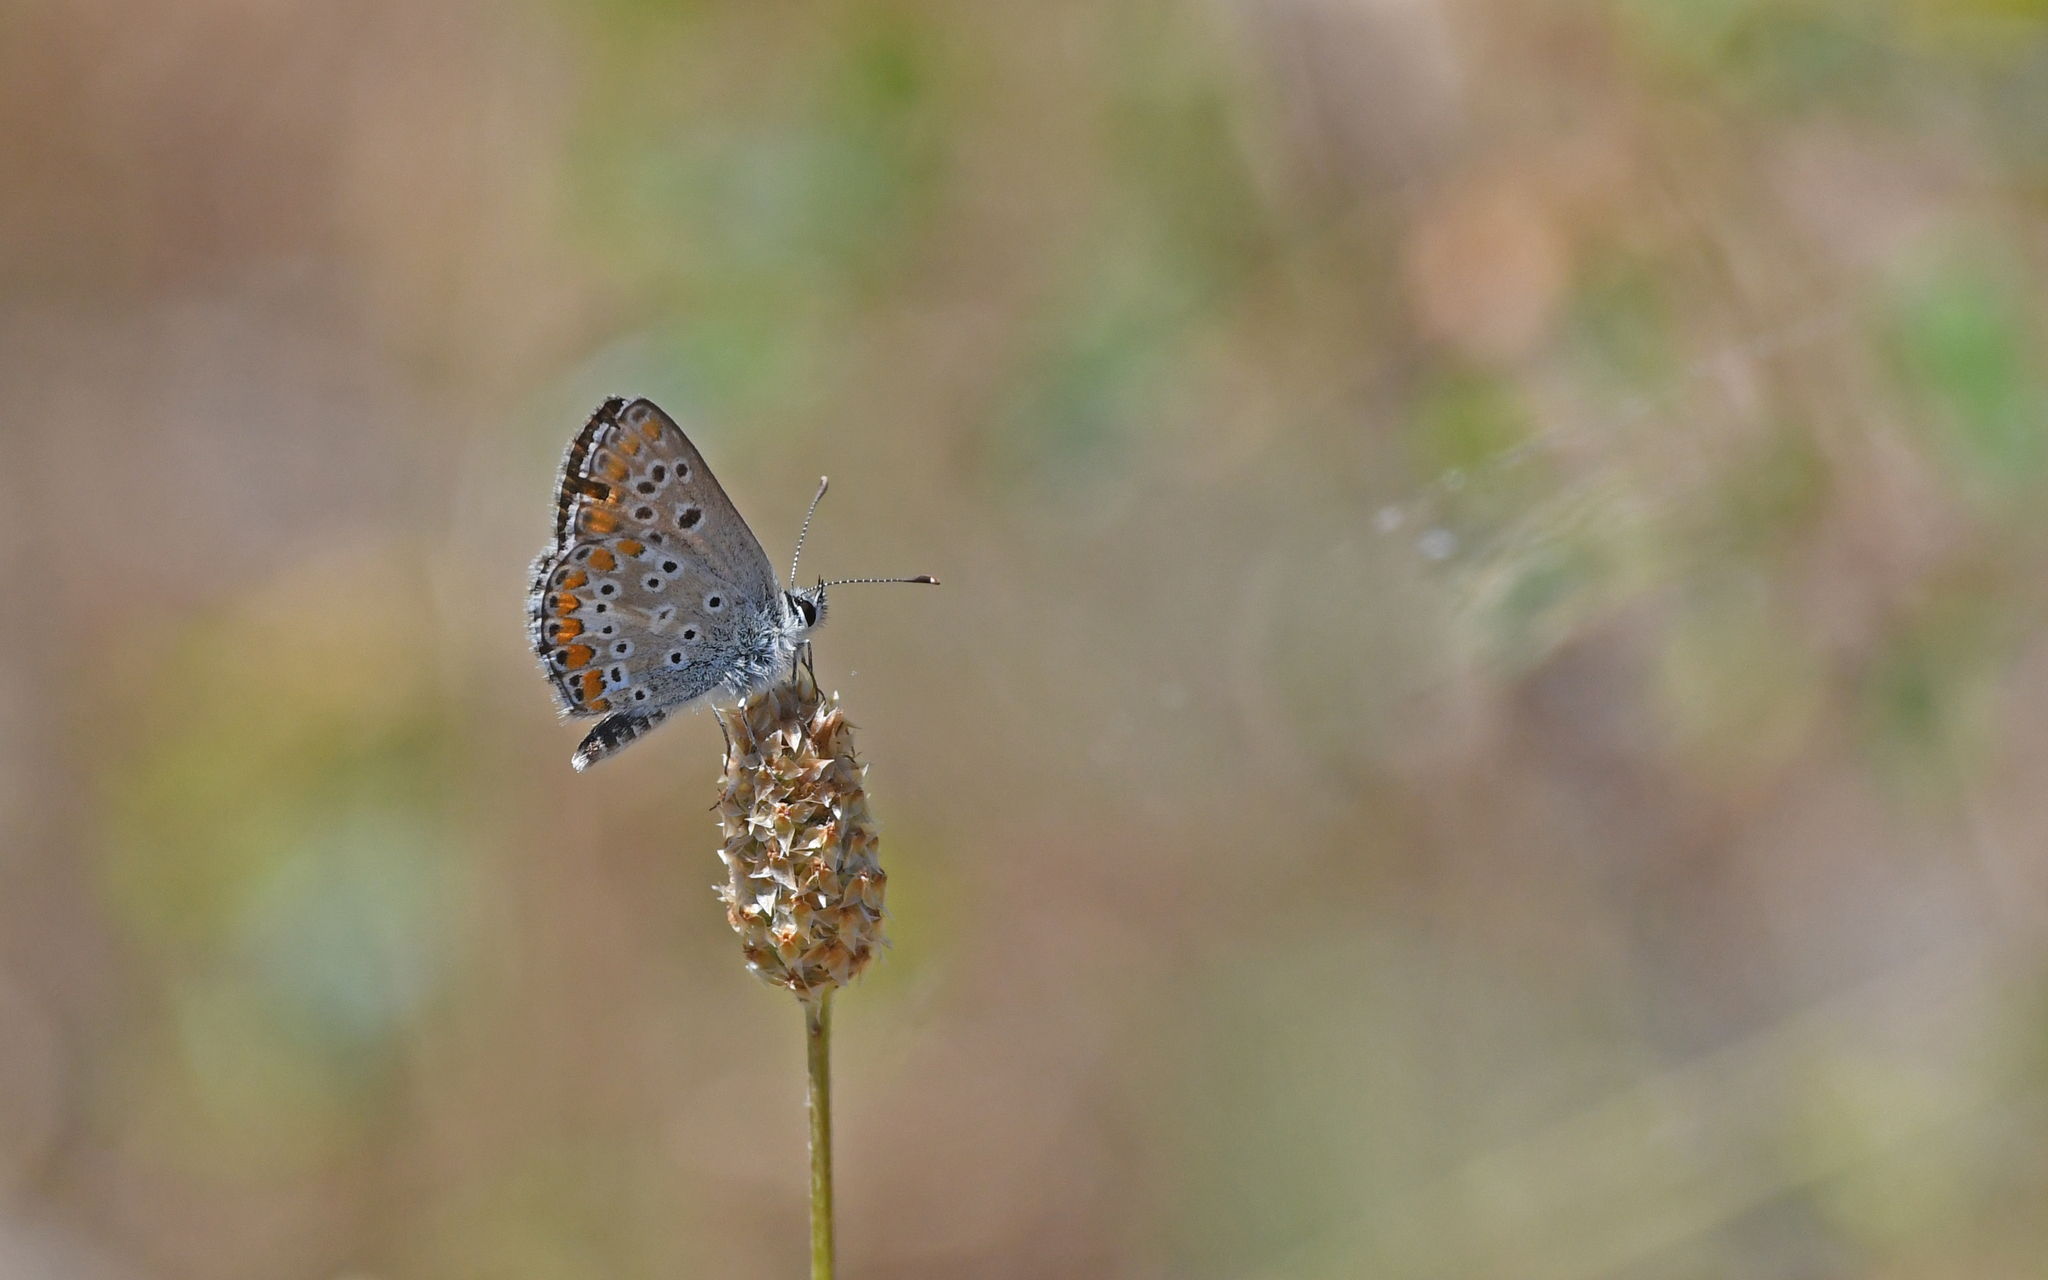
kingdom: Animalia
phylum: Arthropoda
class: Insecta
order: Lepidoptera
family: Lycaenidae
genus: Aricia
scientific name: Aricia agestis
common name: Brown argus
